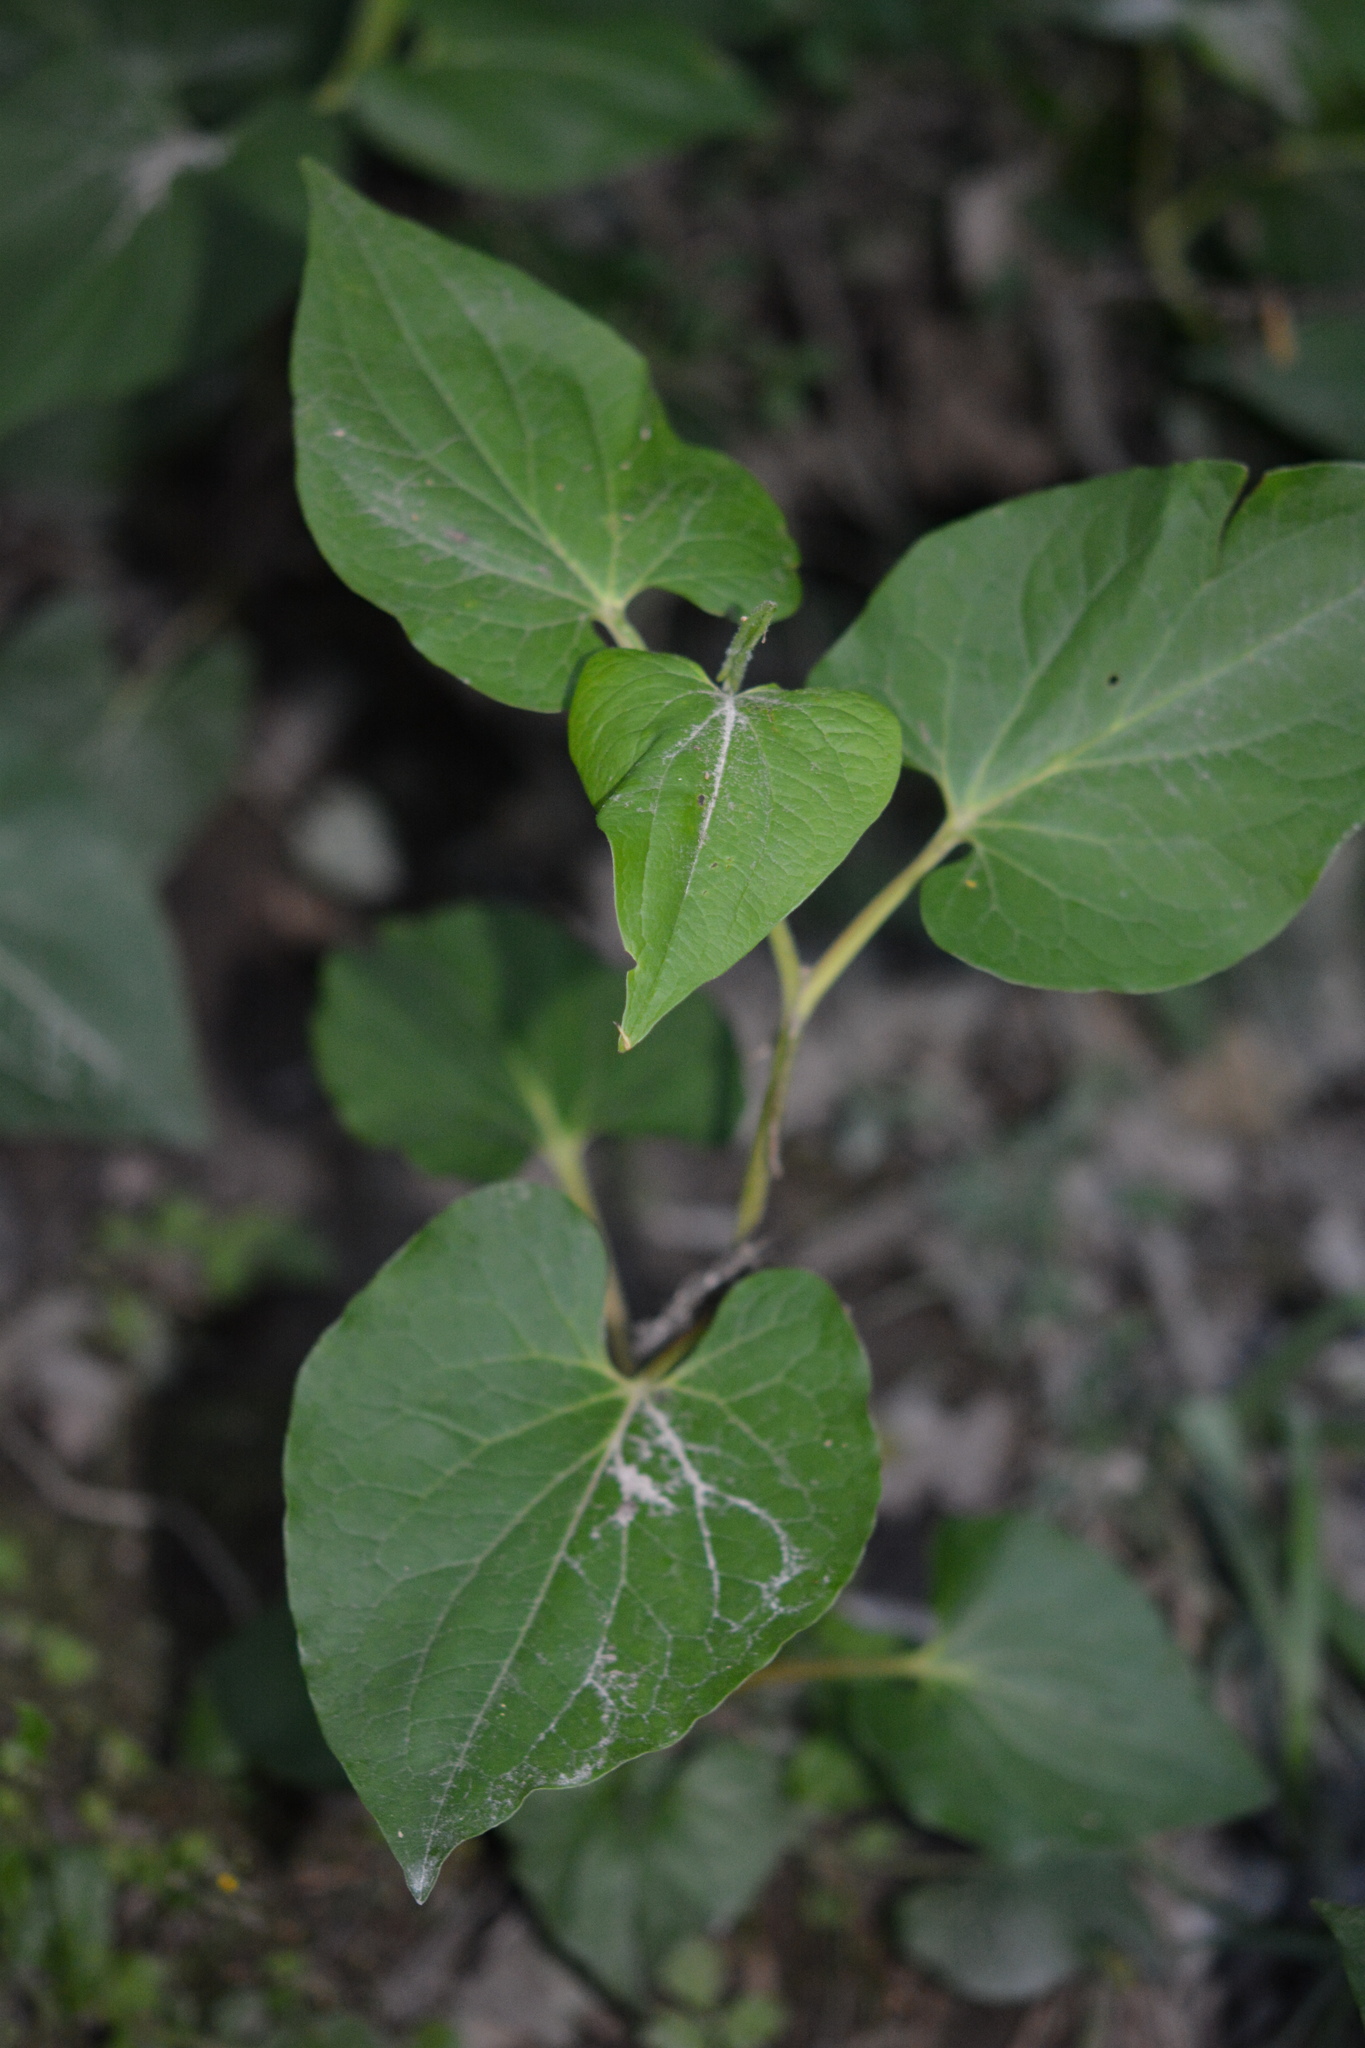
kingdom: Plantae
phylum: Tracheophyta
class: Magnoliopsida
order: Piperales
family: Saururaceae
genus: Saururus
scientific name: Saururus cernuus
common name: Lizard's-tail
